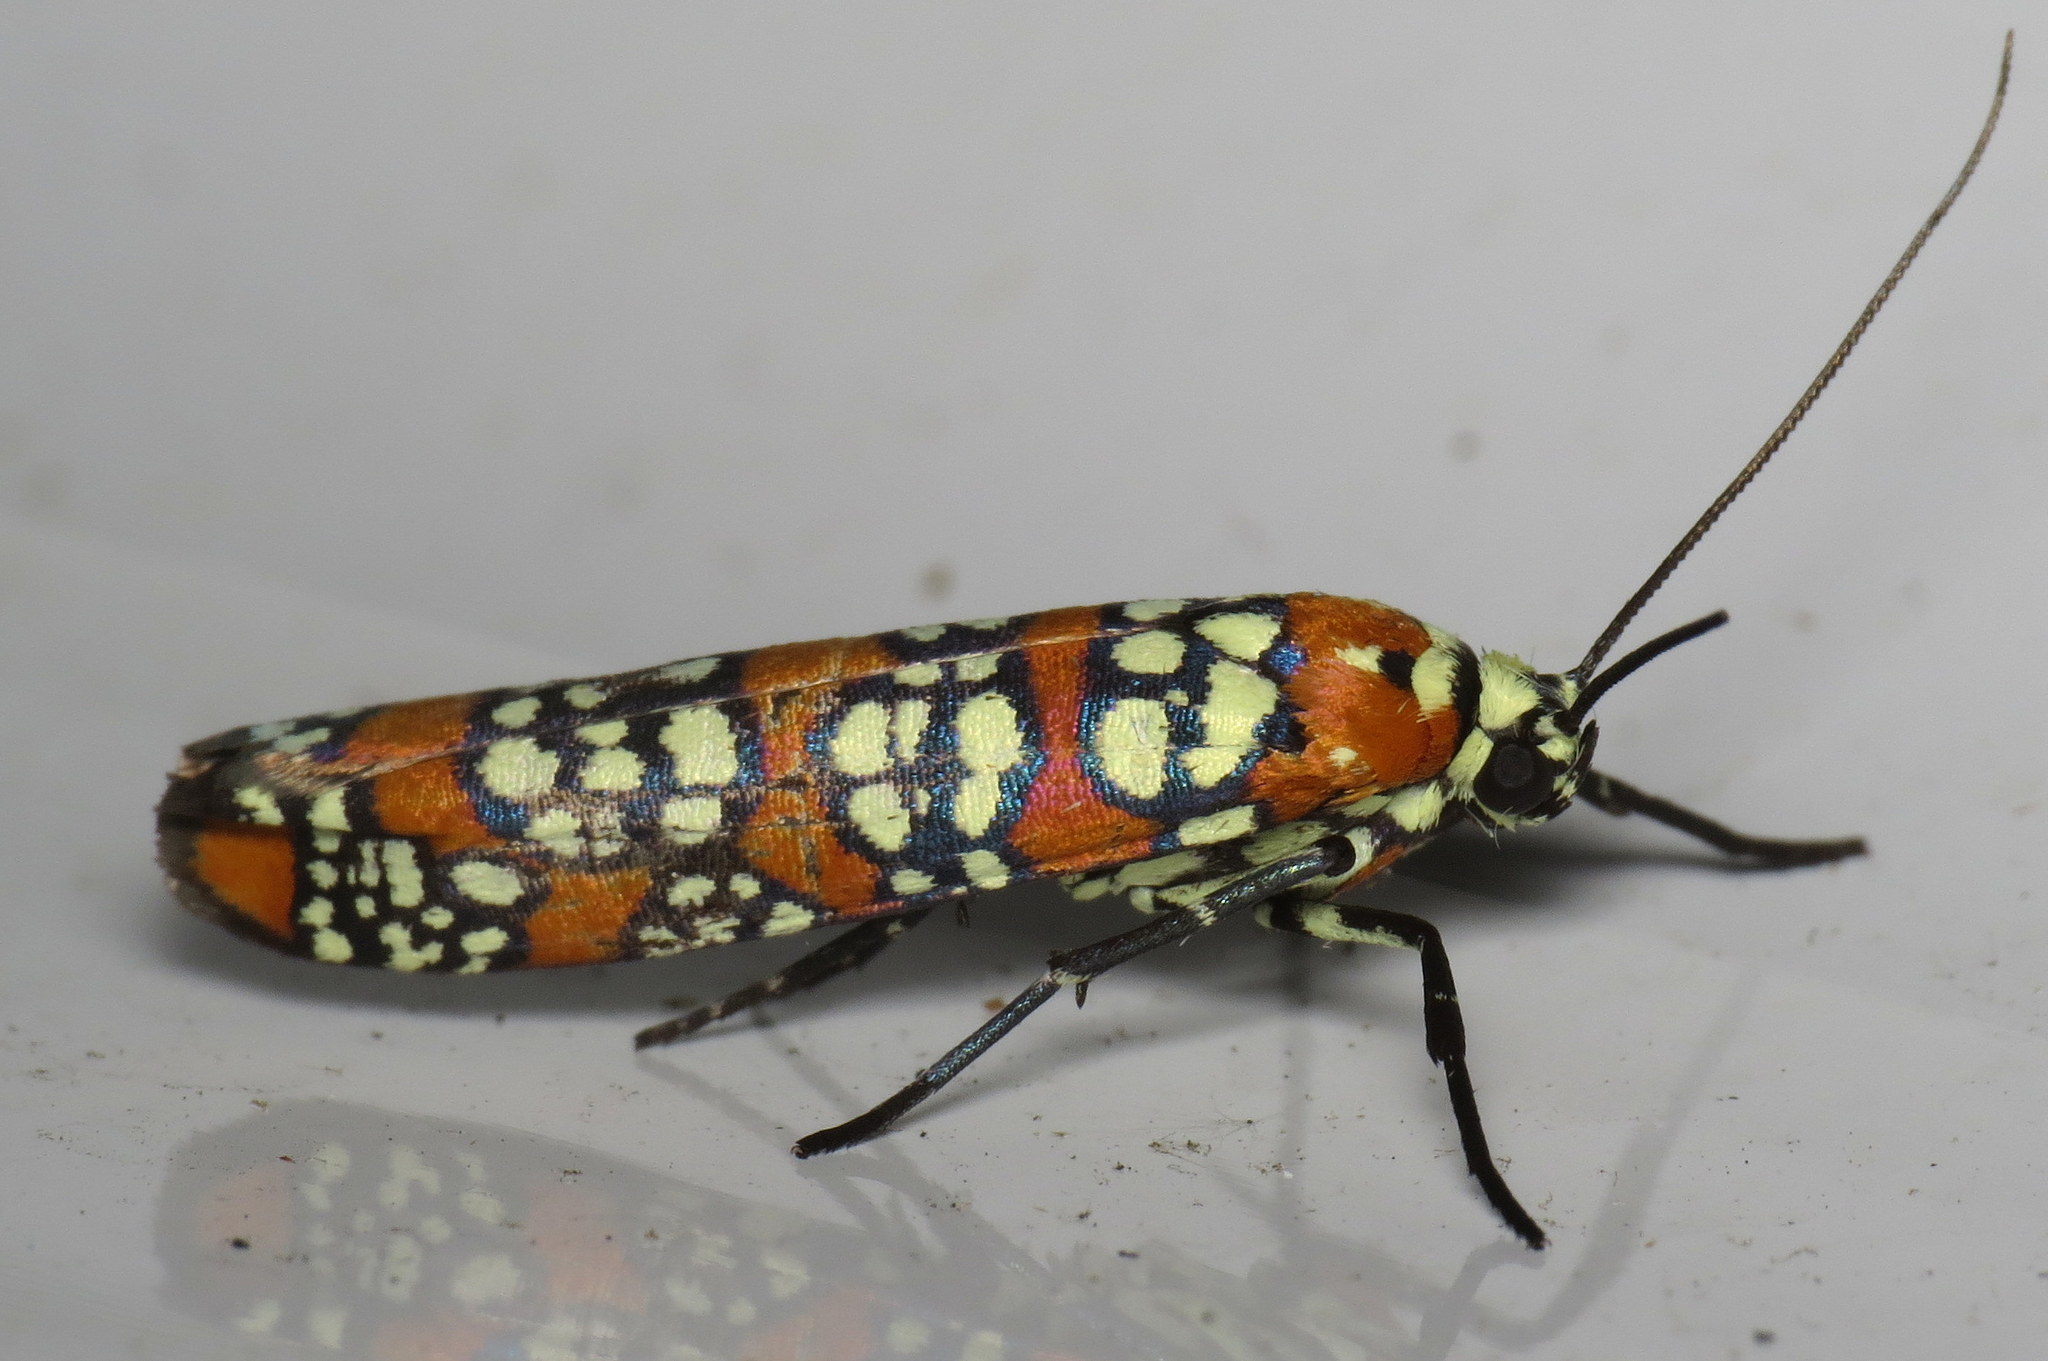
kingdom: Animalia
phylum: Arthropoda
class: Insecta
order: Lepidoptera
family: Attevidae
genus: Atteva
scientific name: Atteva punctella
